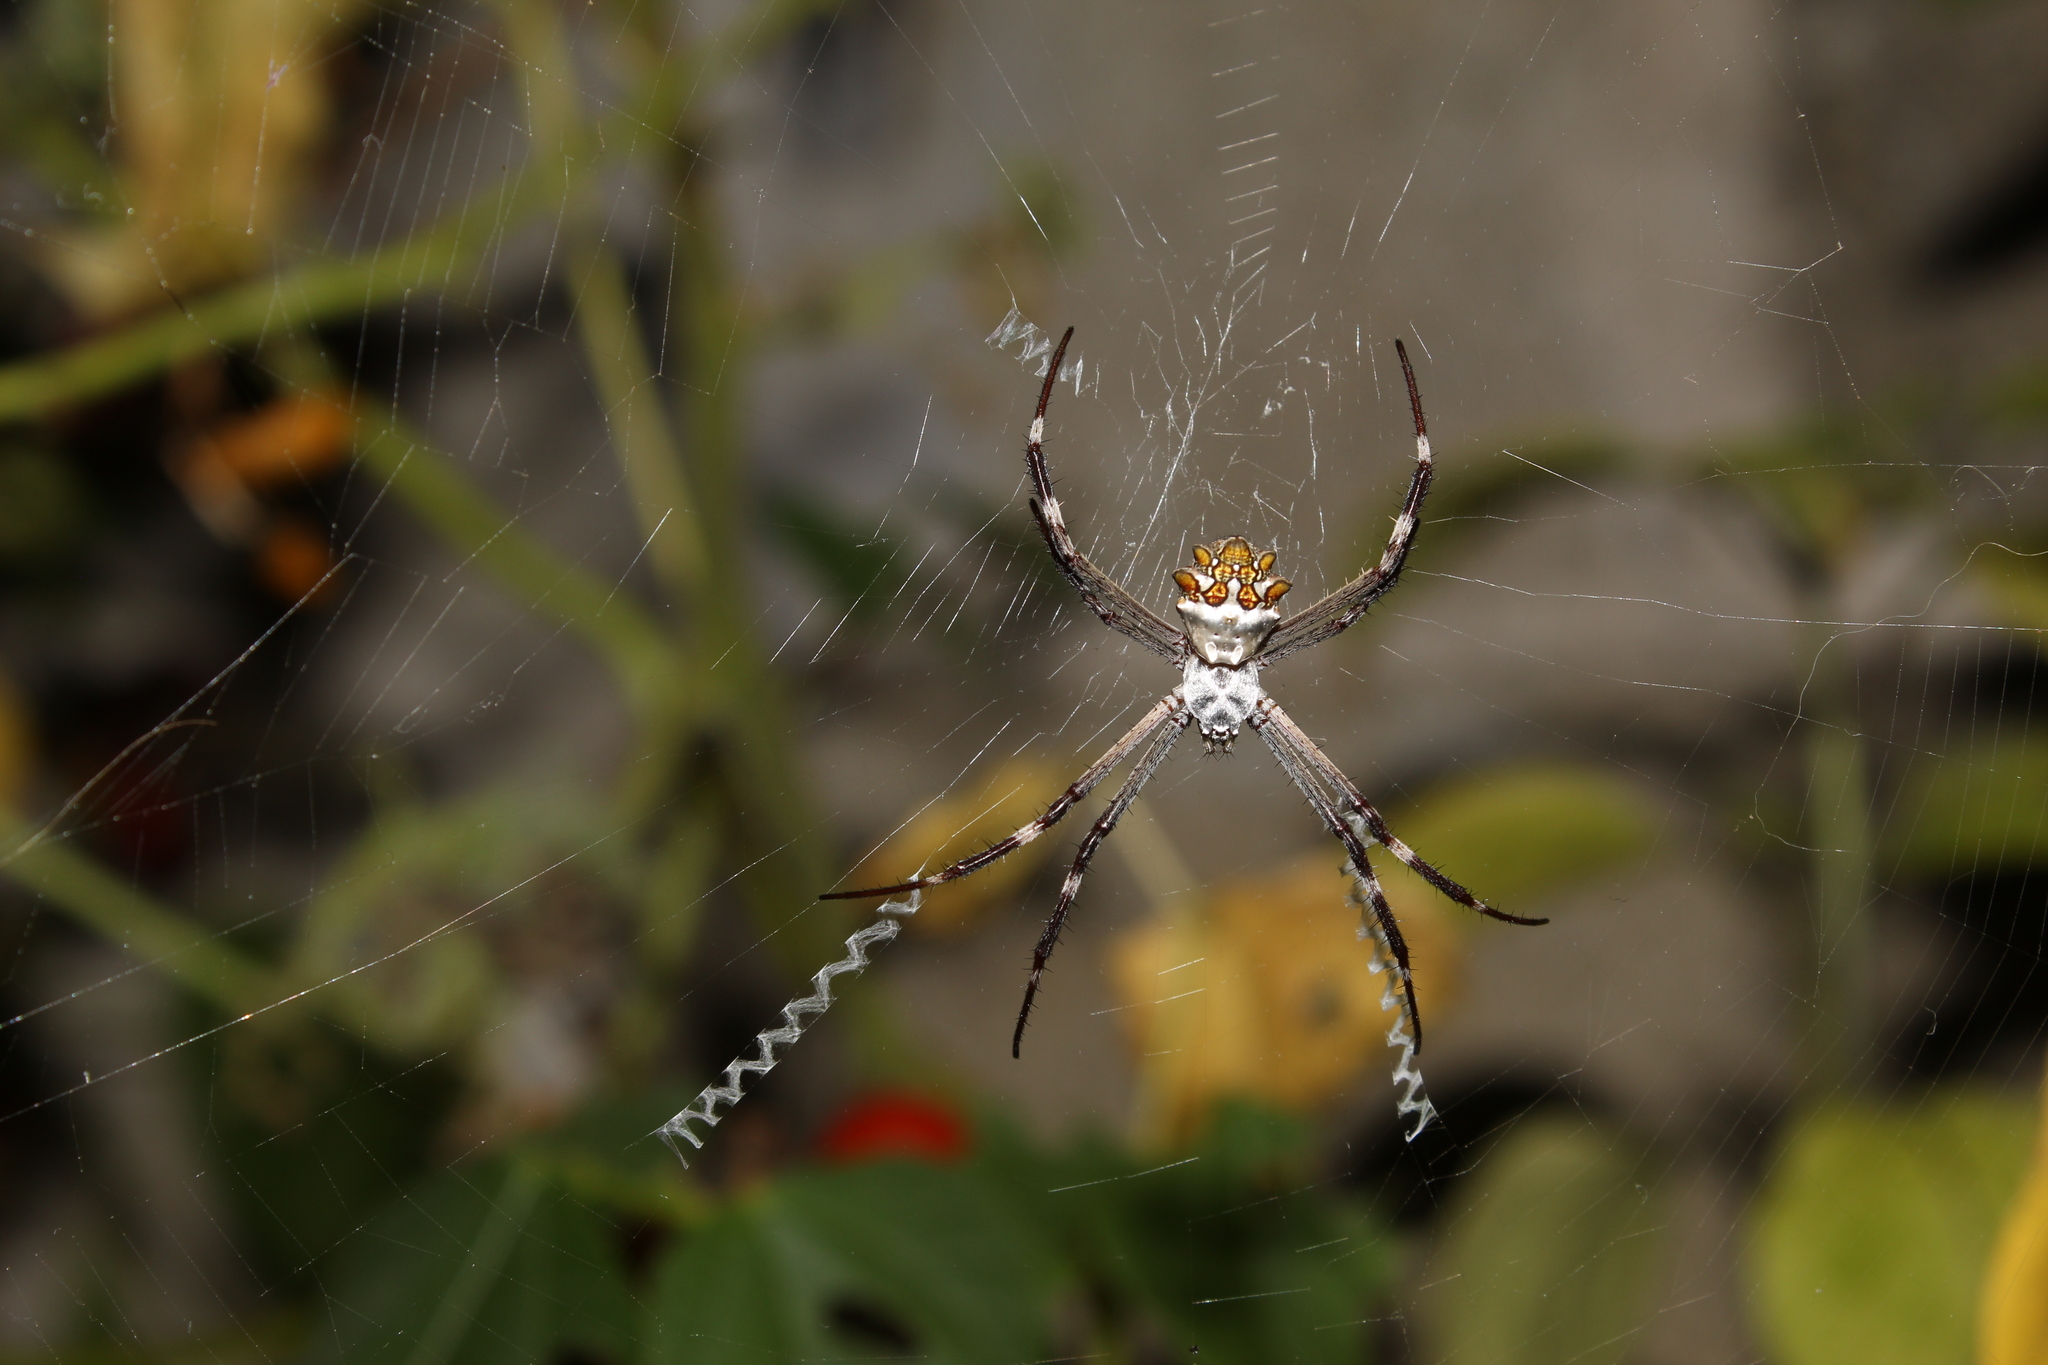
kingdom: Animalia
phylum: Arthropoda
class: Arachnida
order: Araneae
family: Araneidae
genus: Argiope
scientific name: Argiope argentata
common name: Orb weavers
